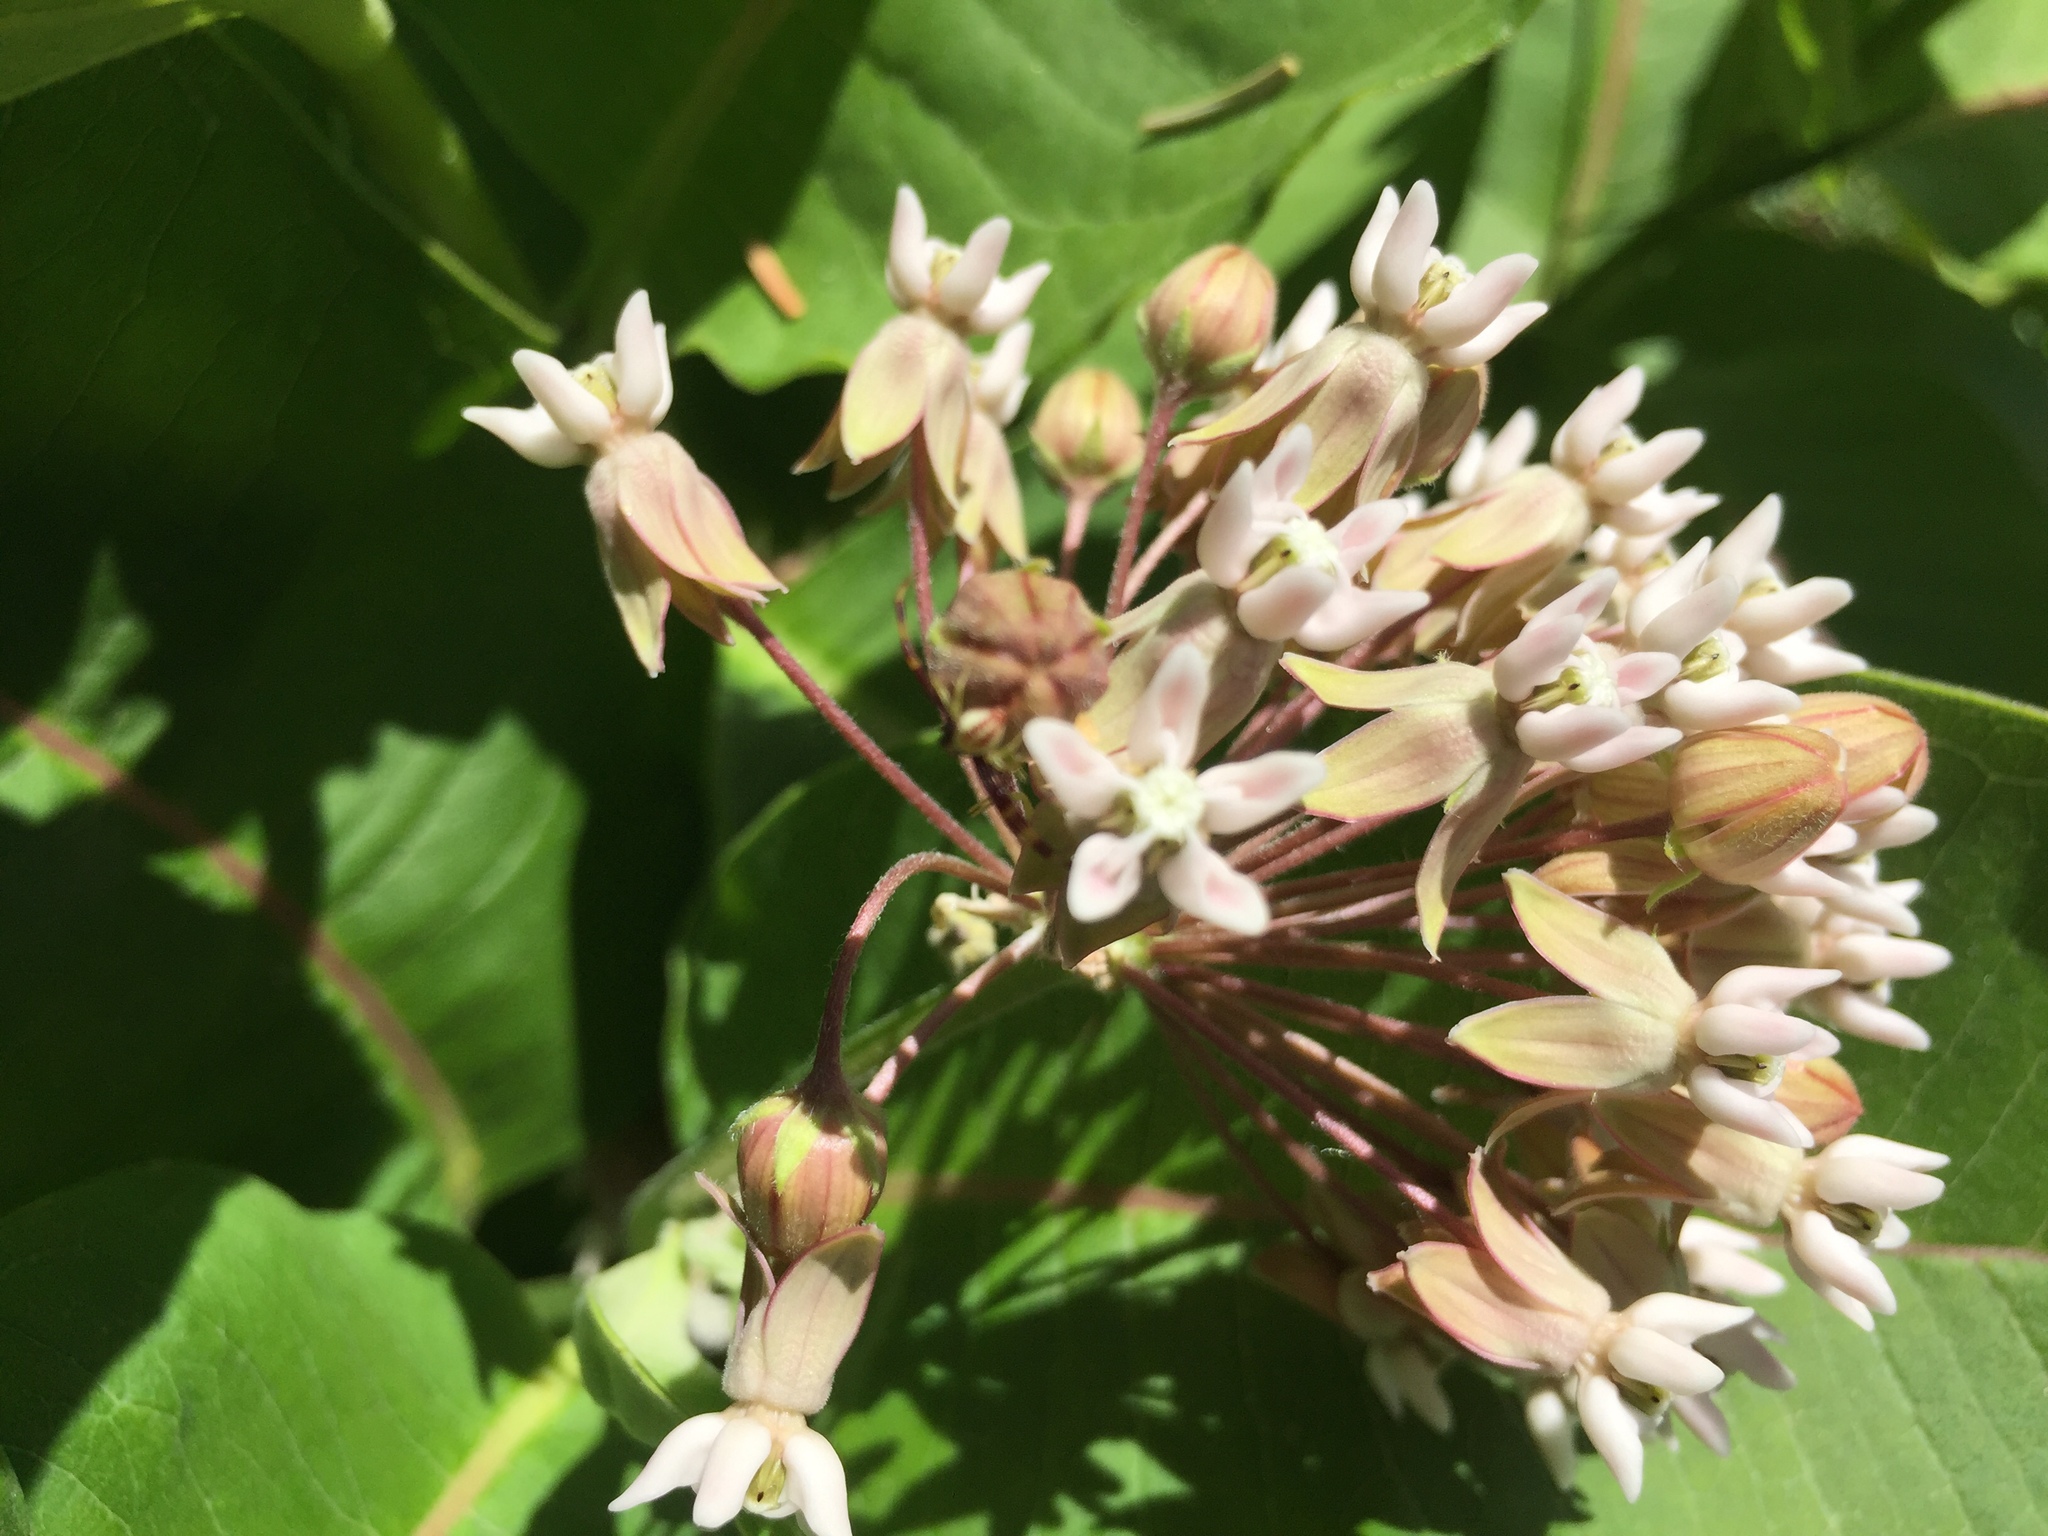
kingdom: Plantae
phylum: Tracheophyta
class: Magnoliopsida
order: Gentianales
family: Apocynaceae
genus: Asclepias
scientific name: Asclepias syriaca
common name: Common milkweed
